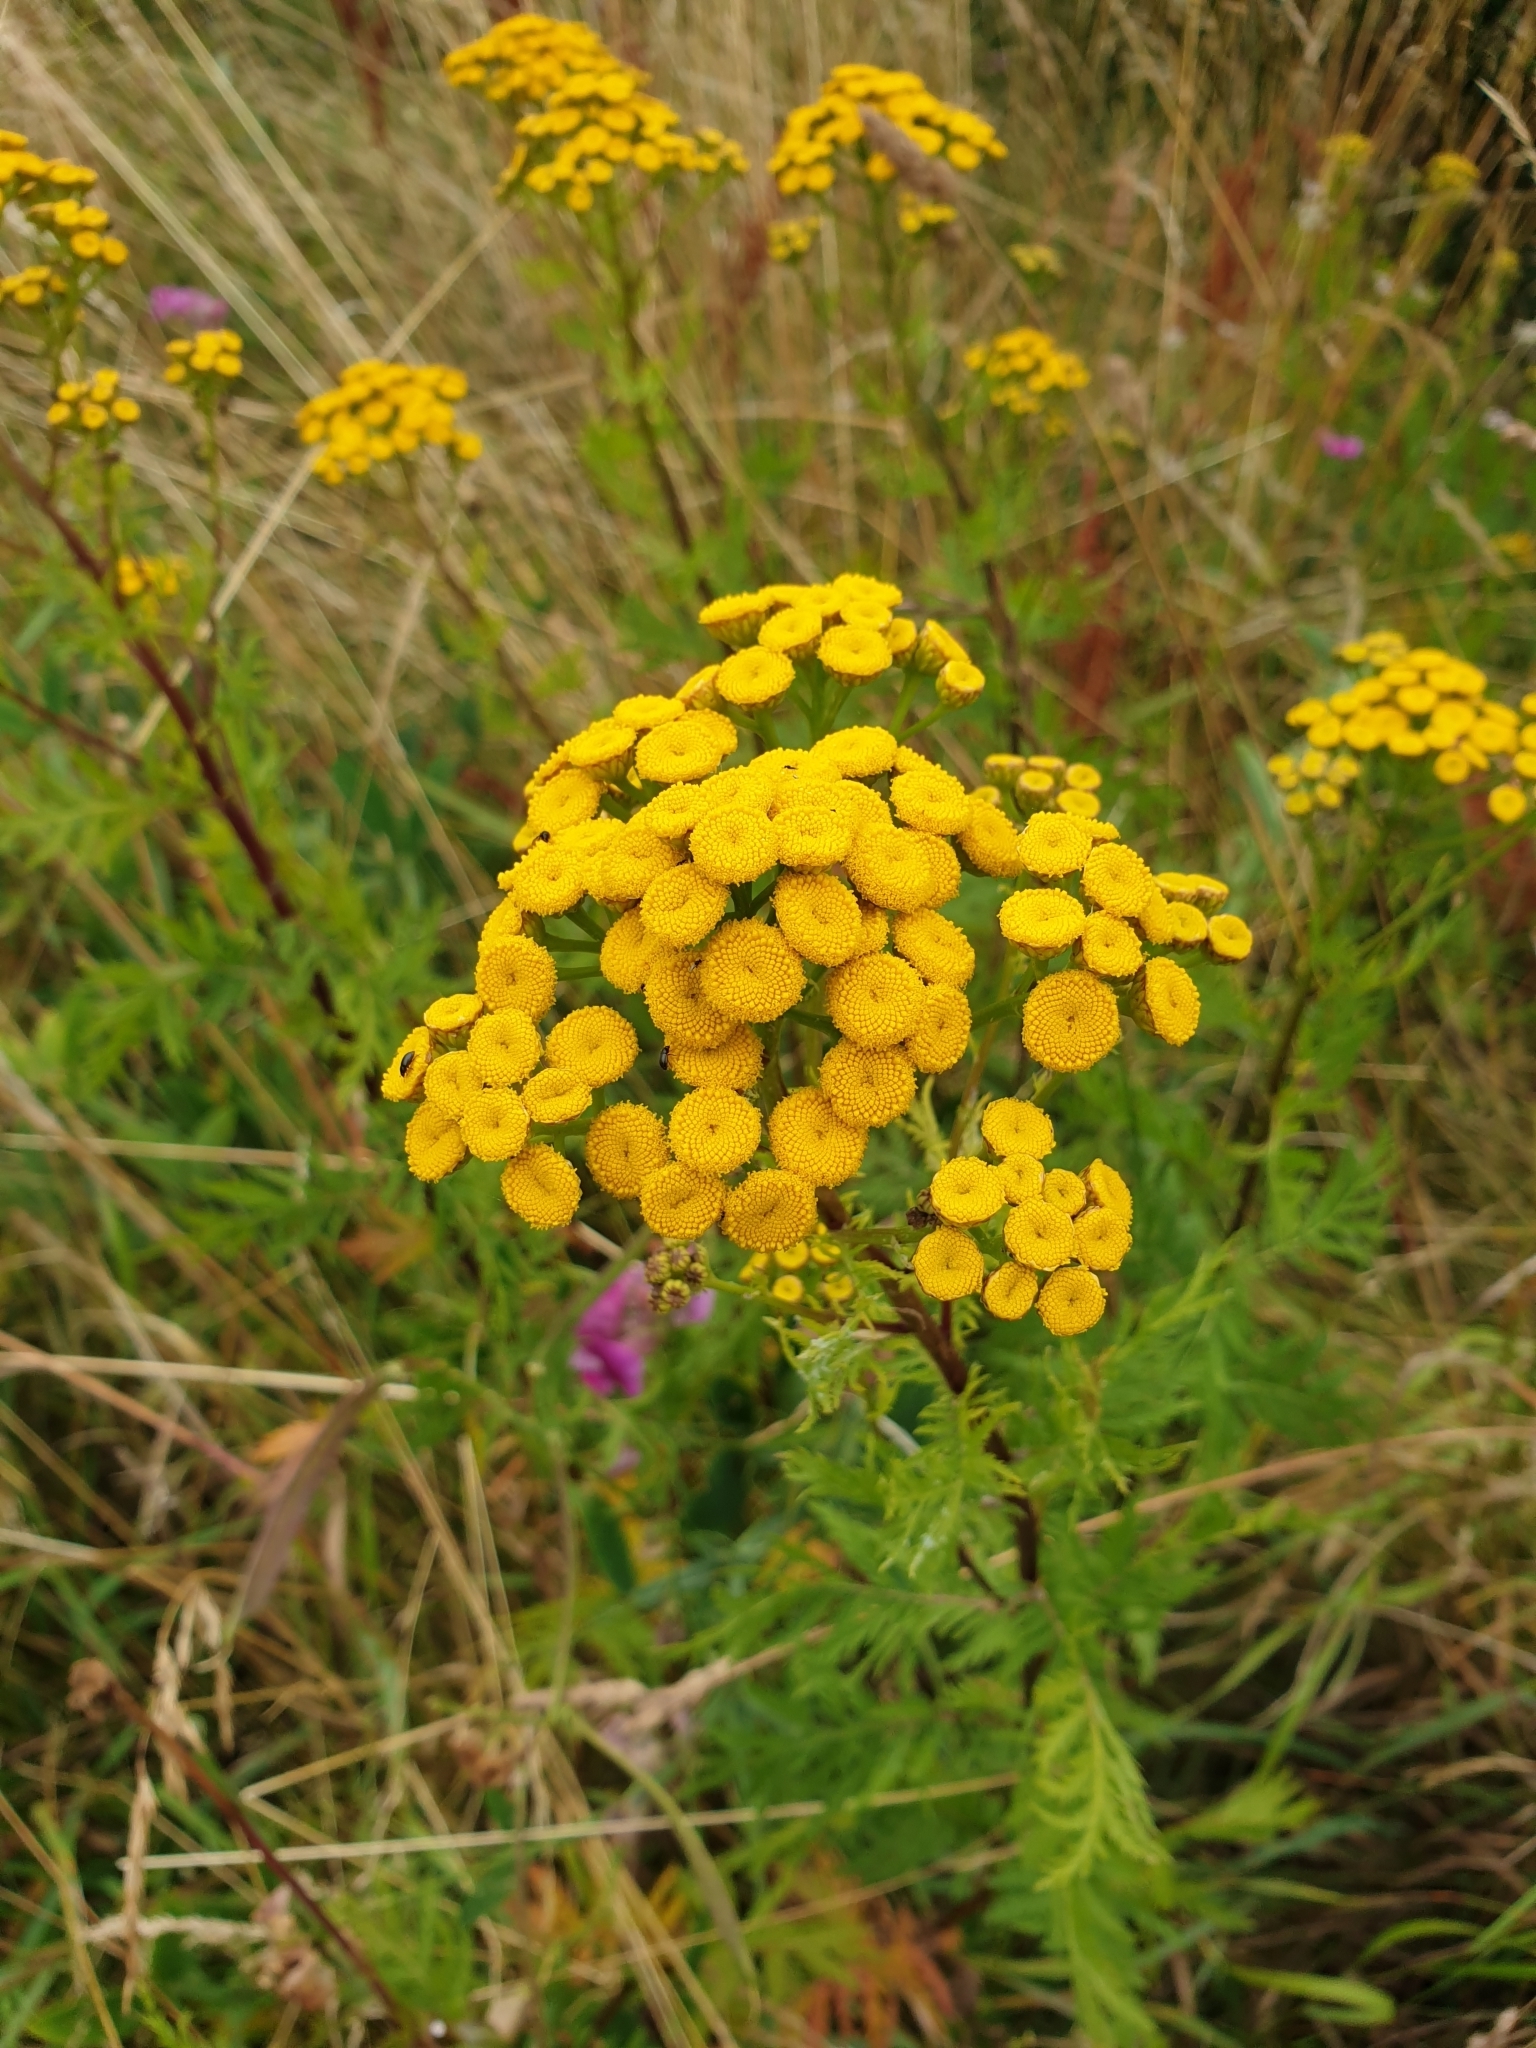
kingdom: Plantae
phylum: Tracheophyta
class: Magnoliopsida
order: Asterales
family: Asteraceae
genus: Tanacetum
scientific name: Tanacetum vulgare
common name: Common tansy
